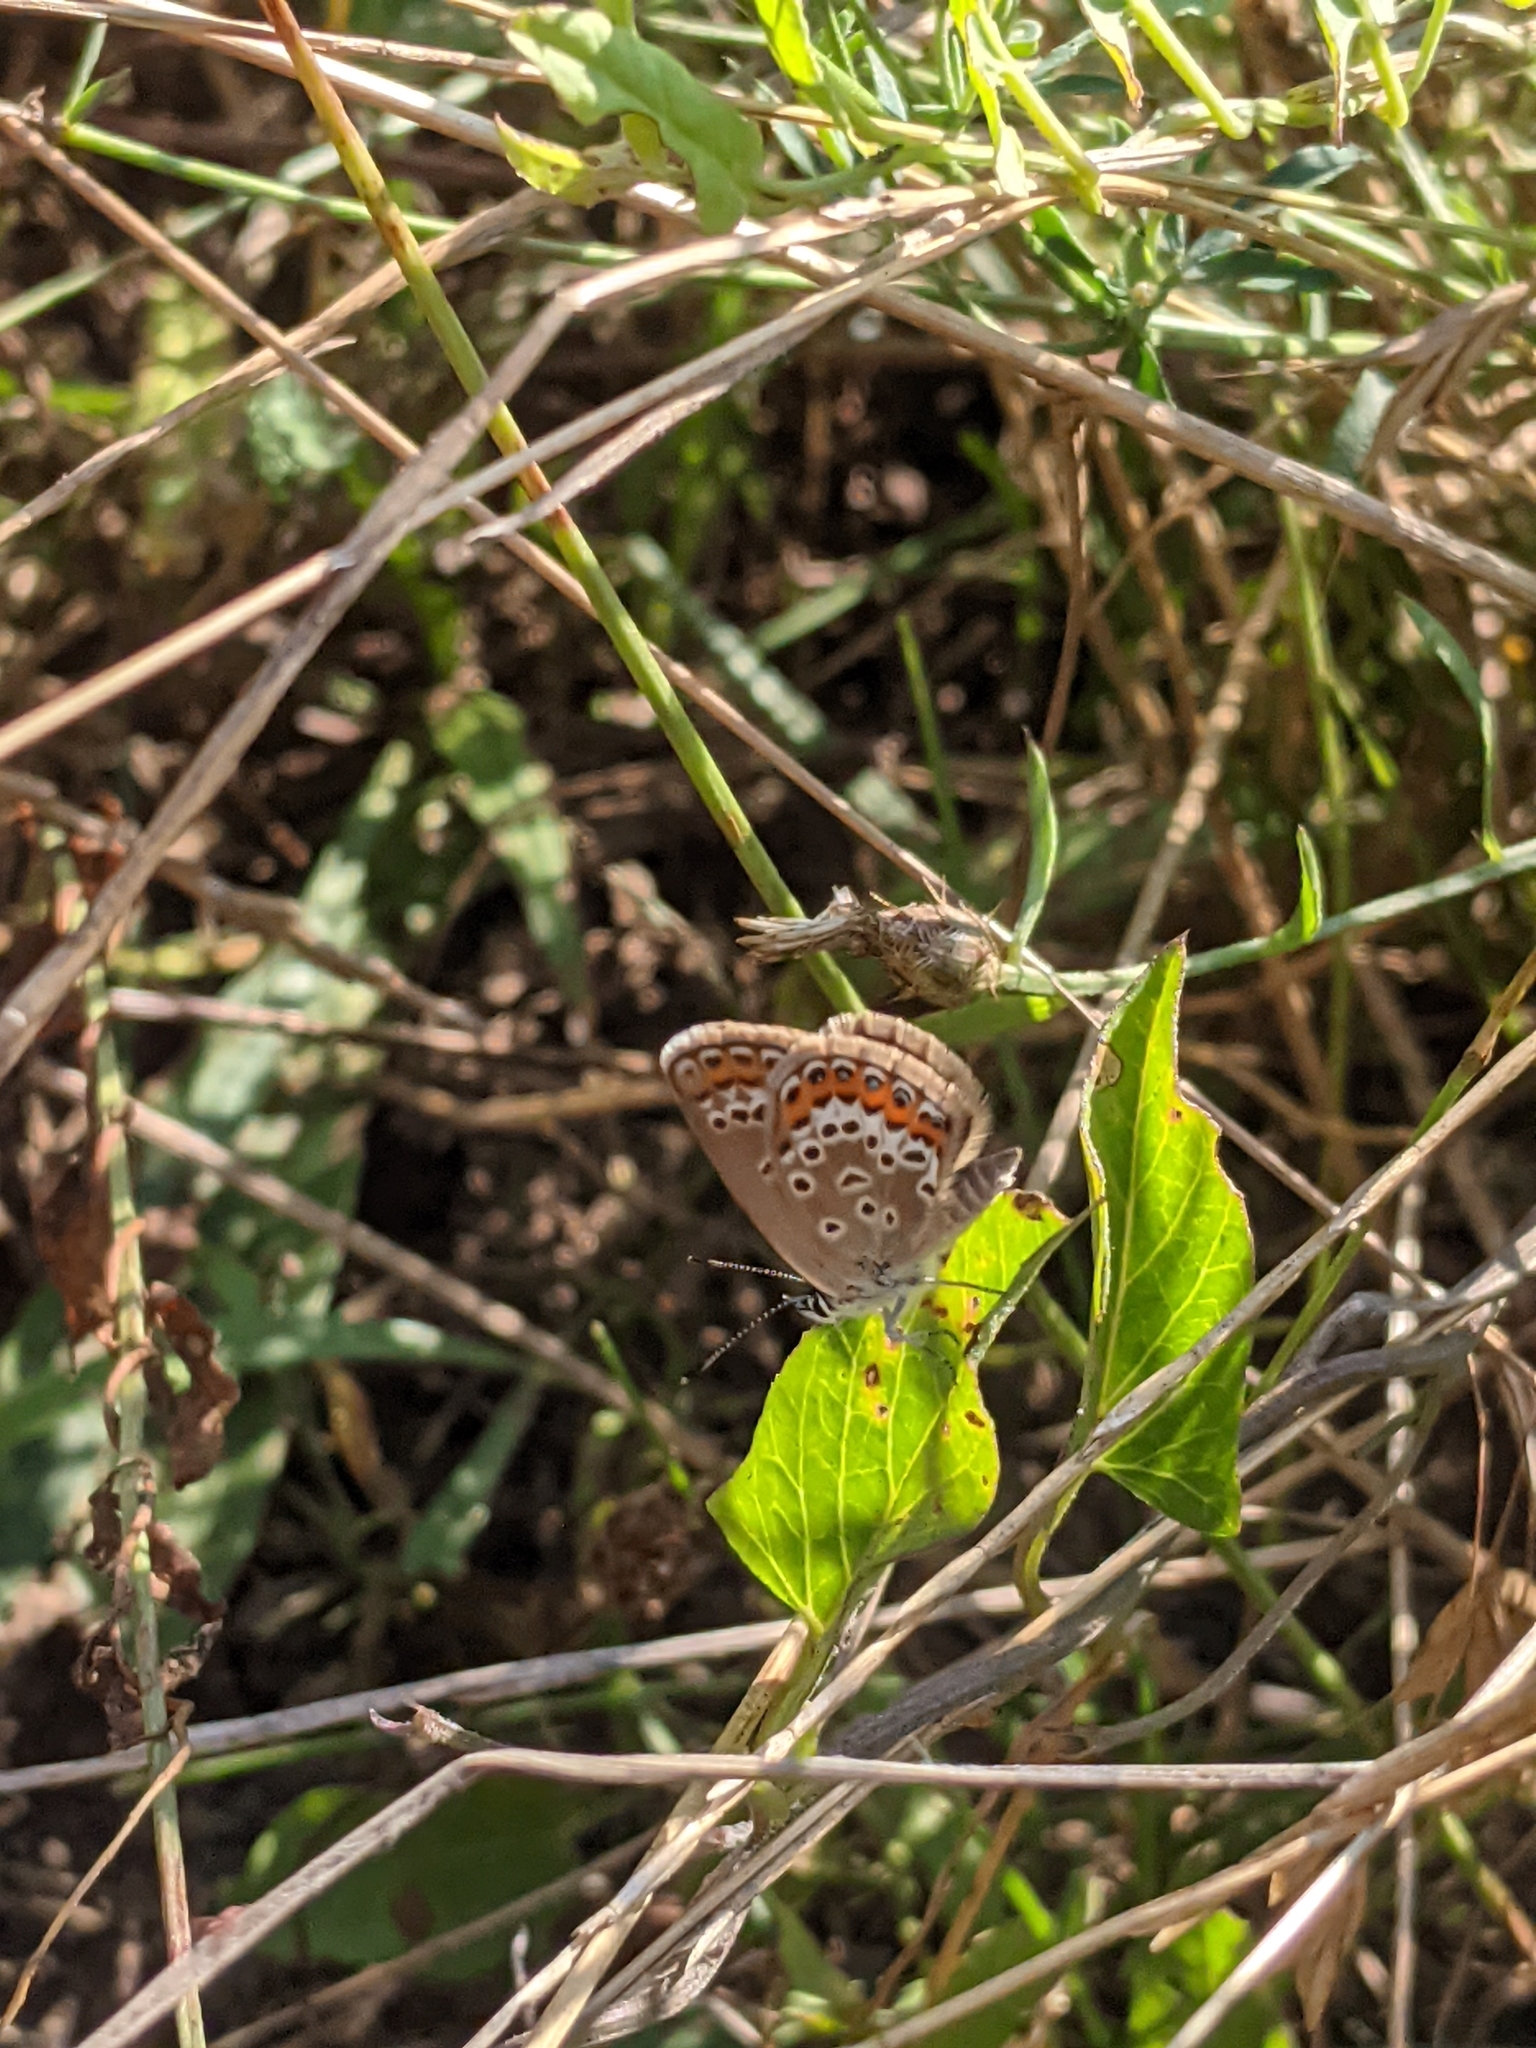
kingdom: Animalia
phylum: Arthropoda
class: Insecta
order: Lepidoptera
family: Lycaenidae
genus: Plebejus
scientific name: Plebejus argus
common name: Silver-studded blue
